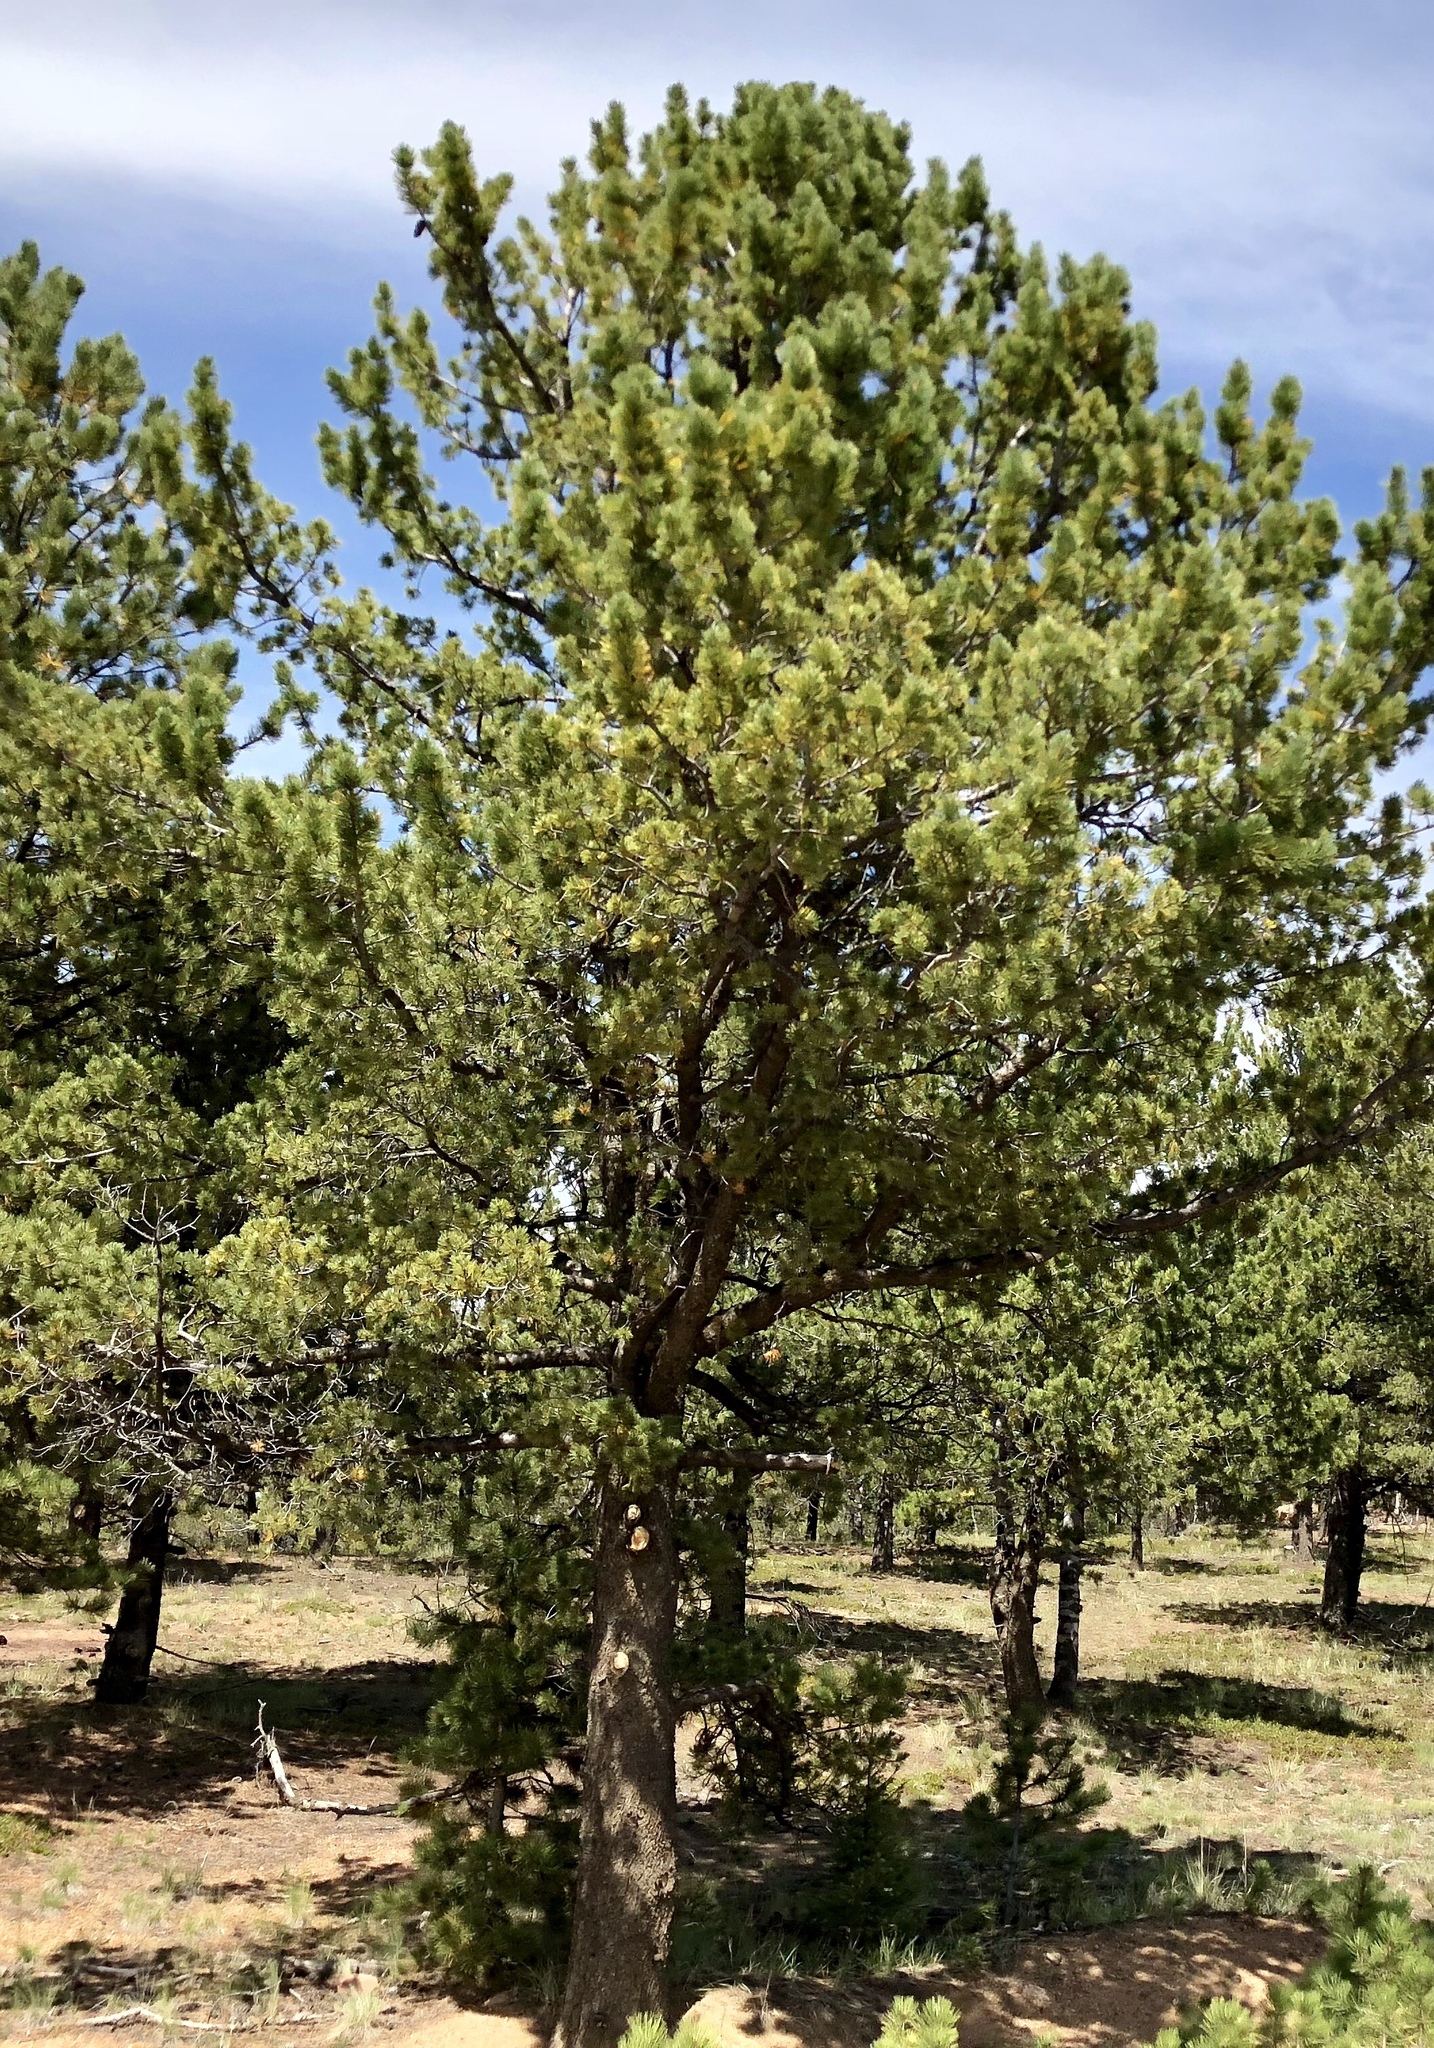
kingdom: Plantae
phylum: Tracheophyta
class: Pinopsida
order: Pinales
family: Pinaceae
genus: Pinus
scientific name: Pinus flexilis
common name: Limber pine
